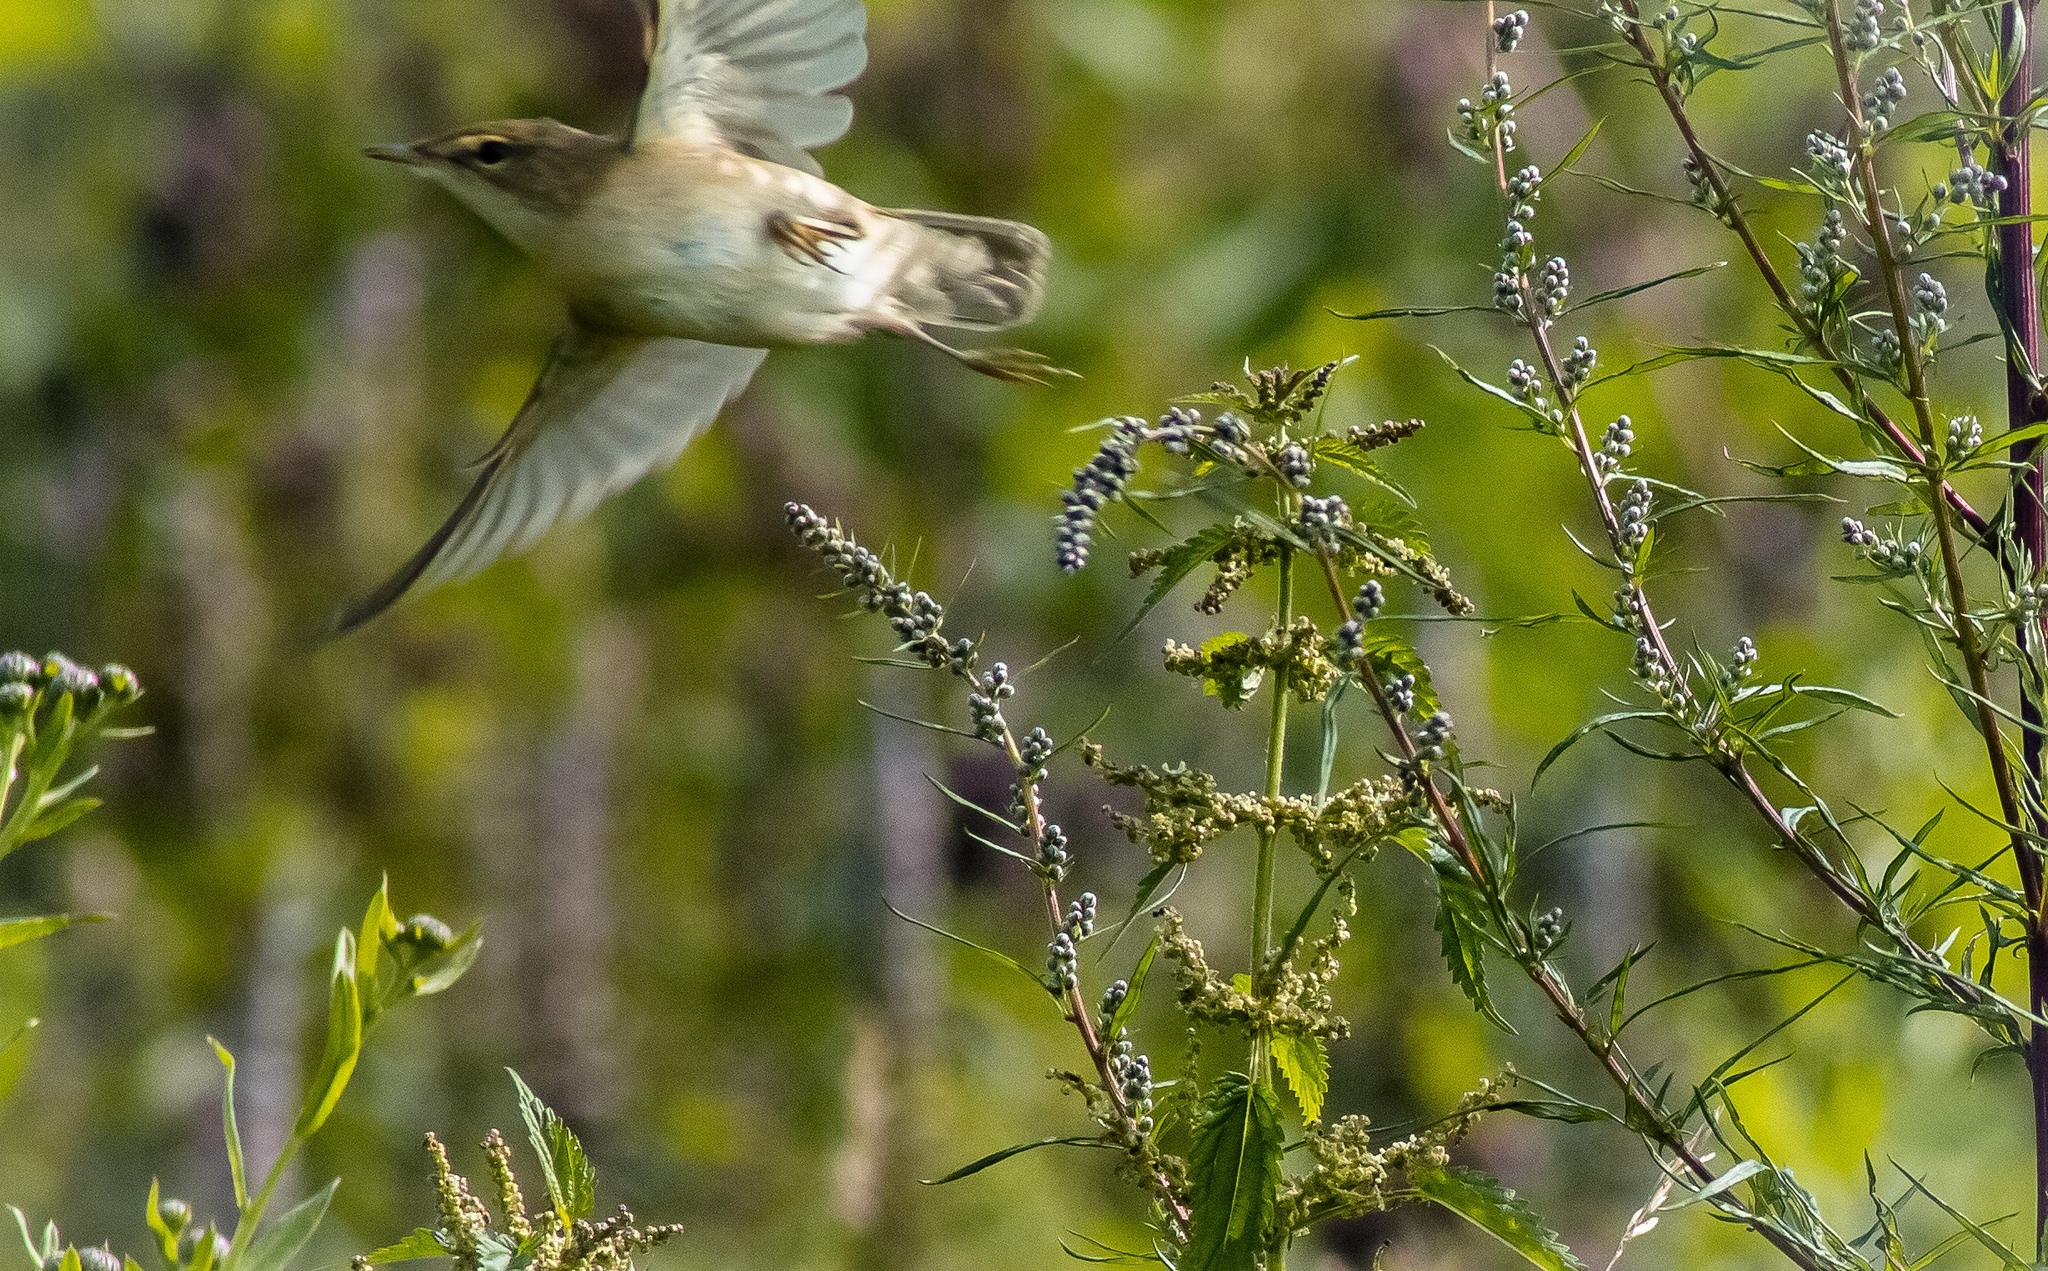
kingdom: Animalia
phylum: Chordata
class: Aves
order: Passeriformes
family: Acrocephalidae
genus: Iduna
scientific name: Iduna caligata
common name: Booted warbler
